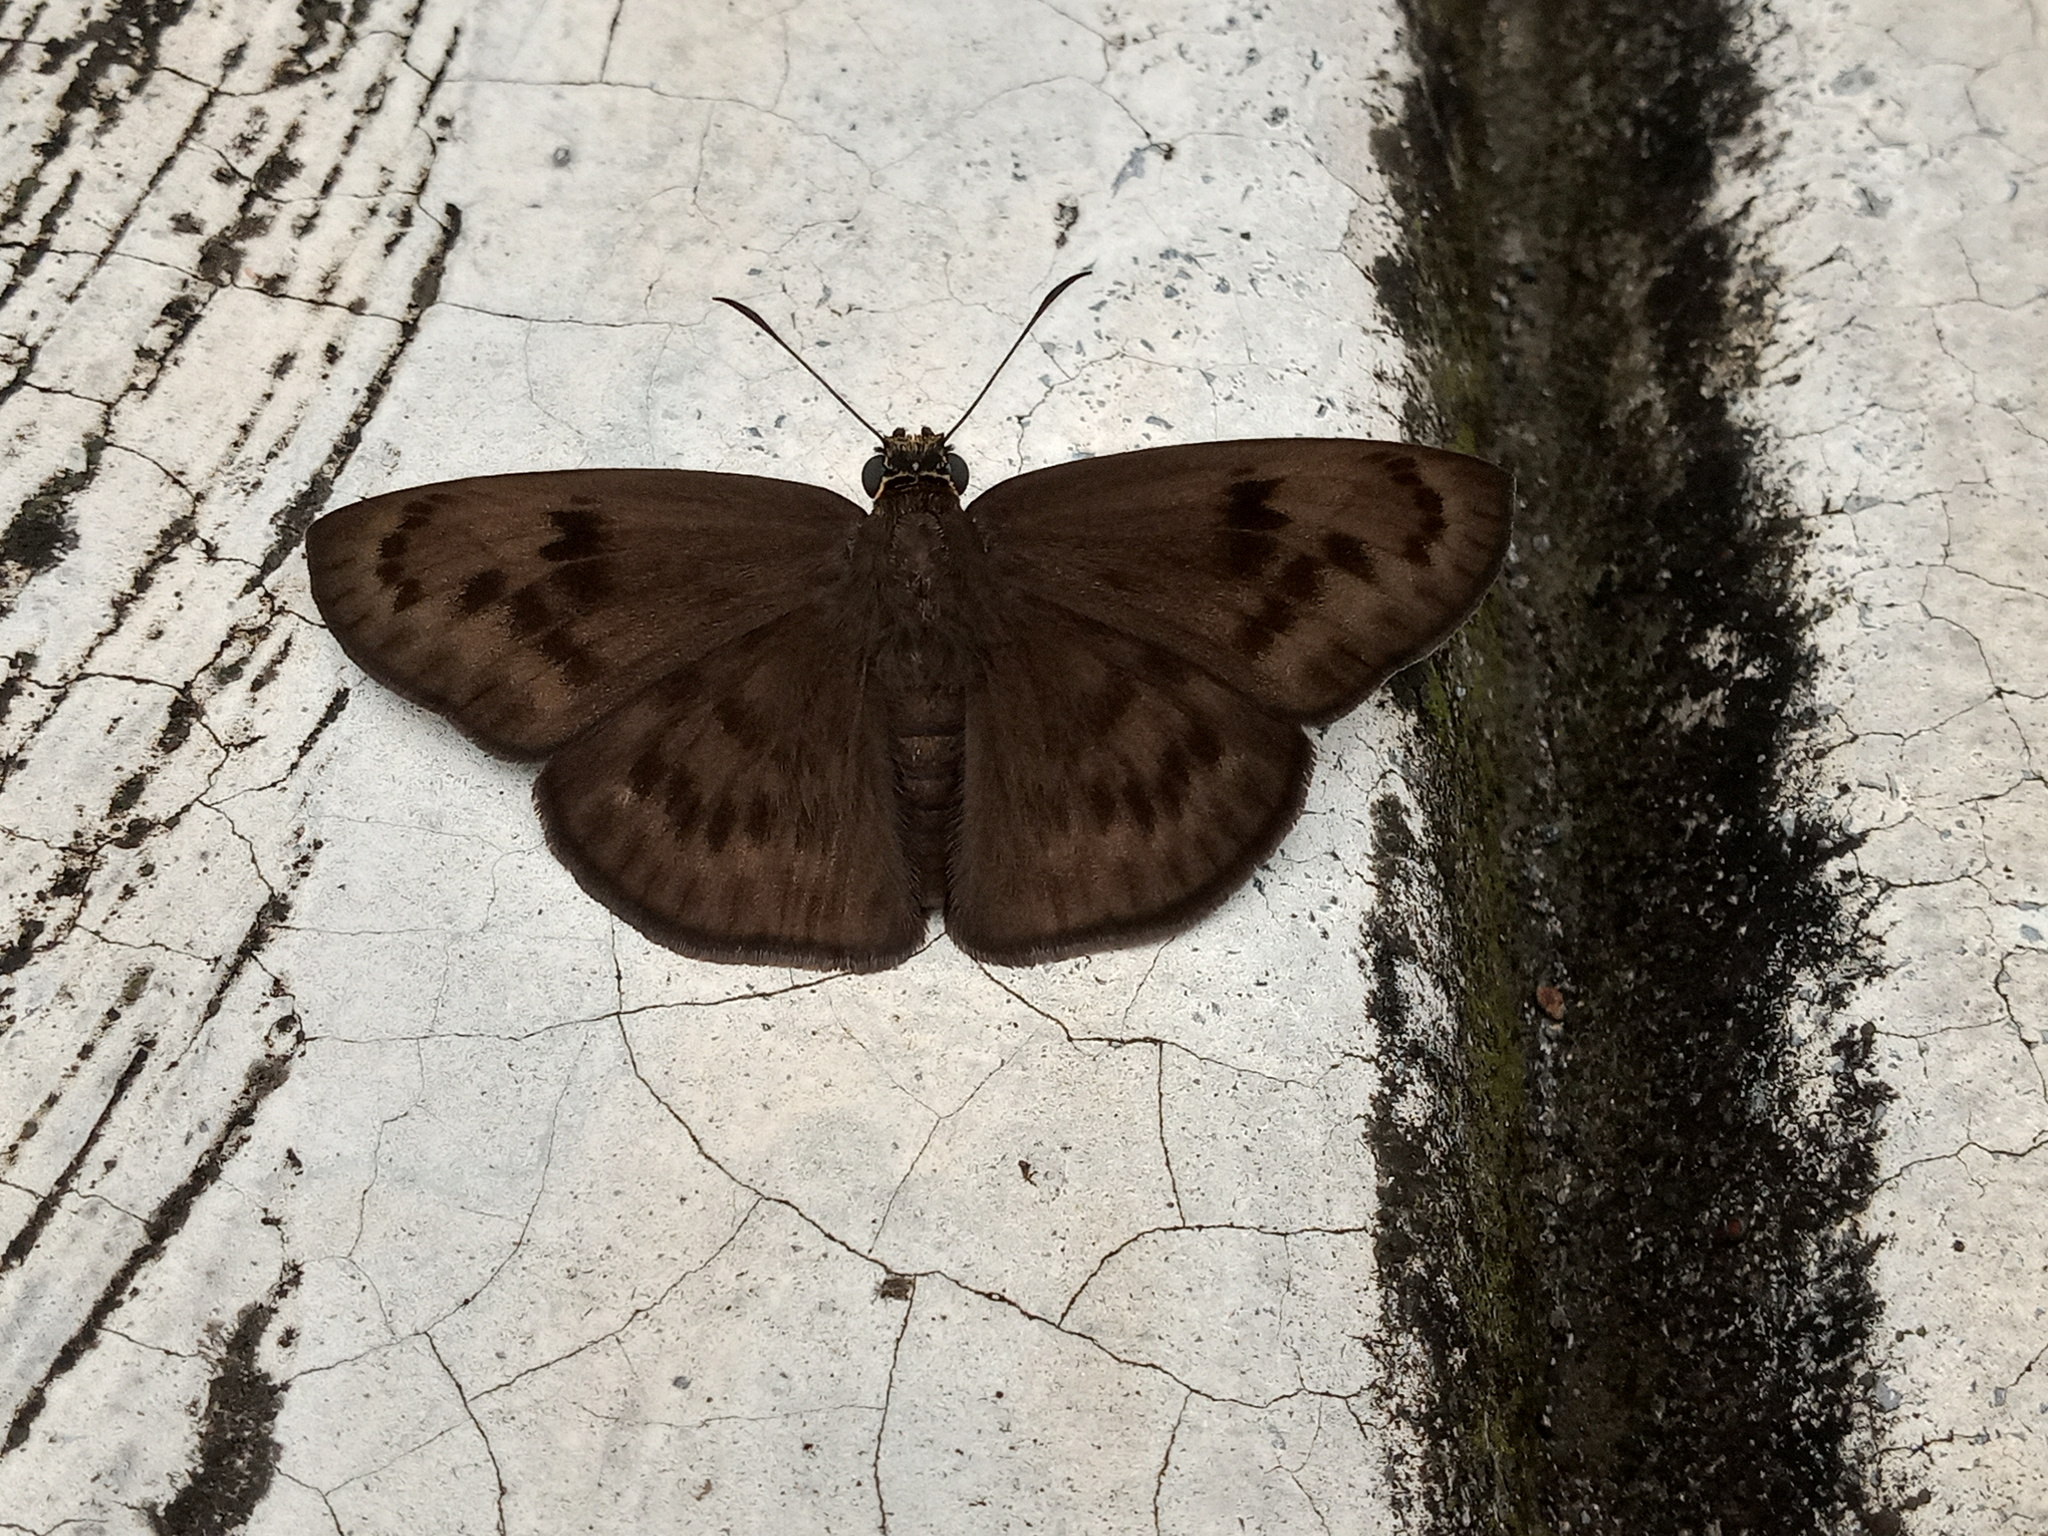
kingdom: Animalia
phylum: Arthropoda
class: Insecta
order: Lepidoptera
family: Hesperiidae
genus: Grais
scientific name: Grais stigmaticus
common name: Hermit skipper
